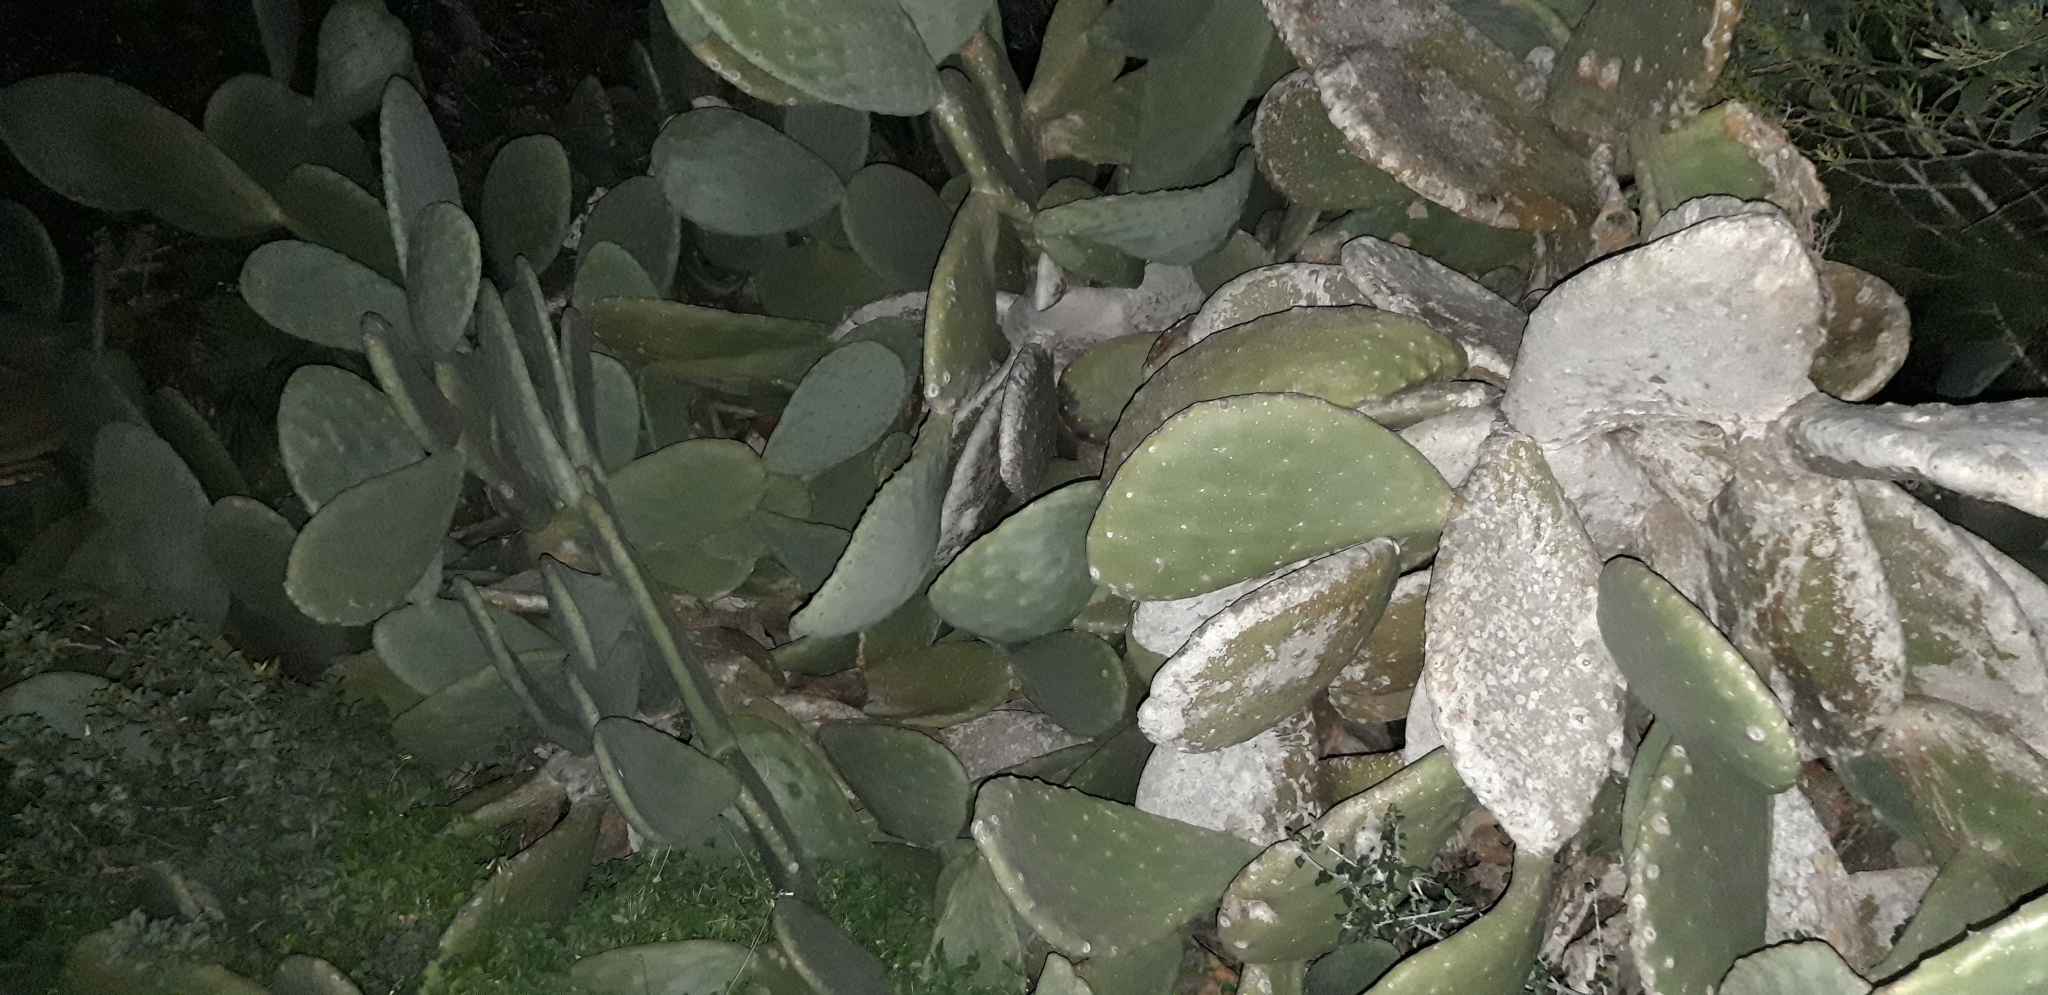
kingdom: Plantae
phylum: Tracheophyta
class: Magnoliopsida
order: Caryophyllales
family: Cactaceae
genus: Opuntia
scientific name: Opuntia ficus-indica
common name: Barbary fig
